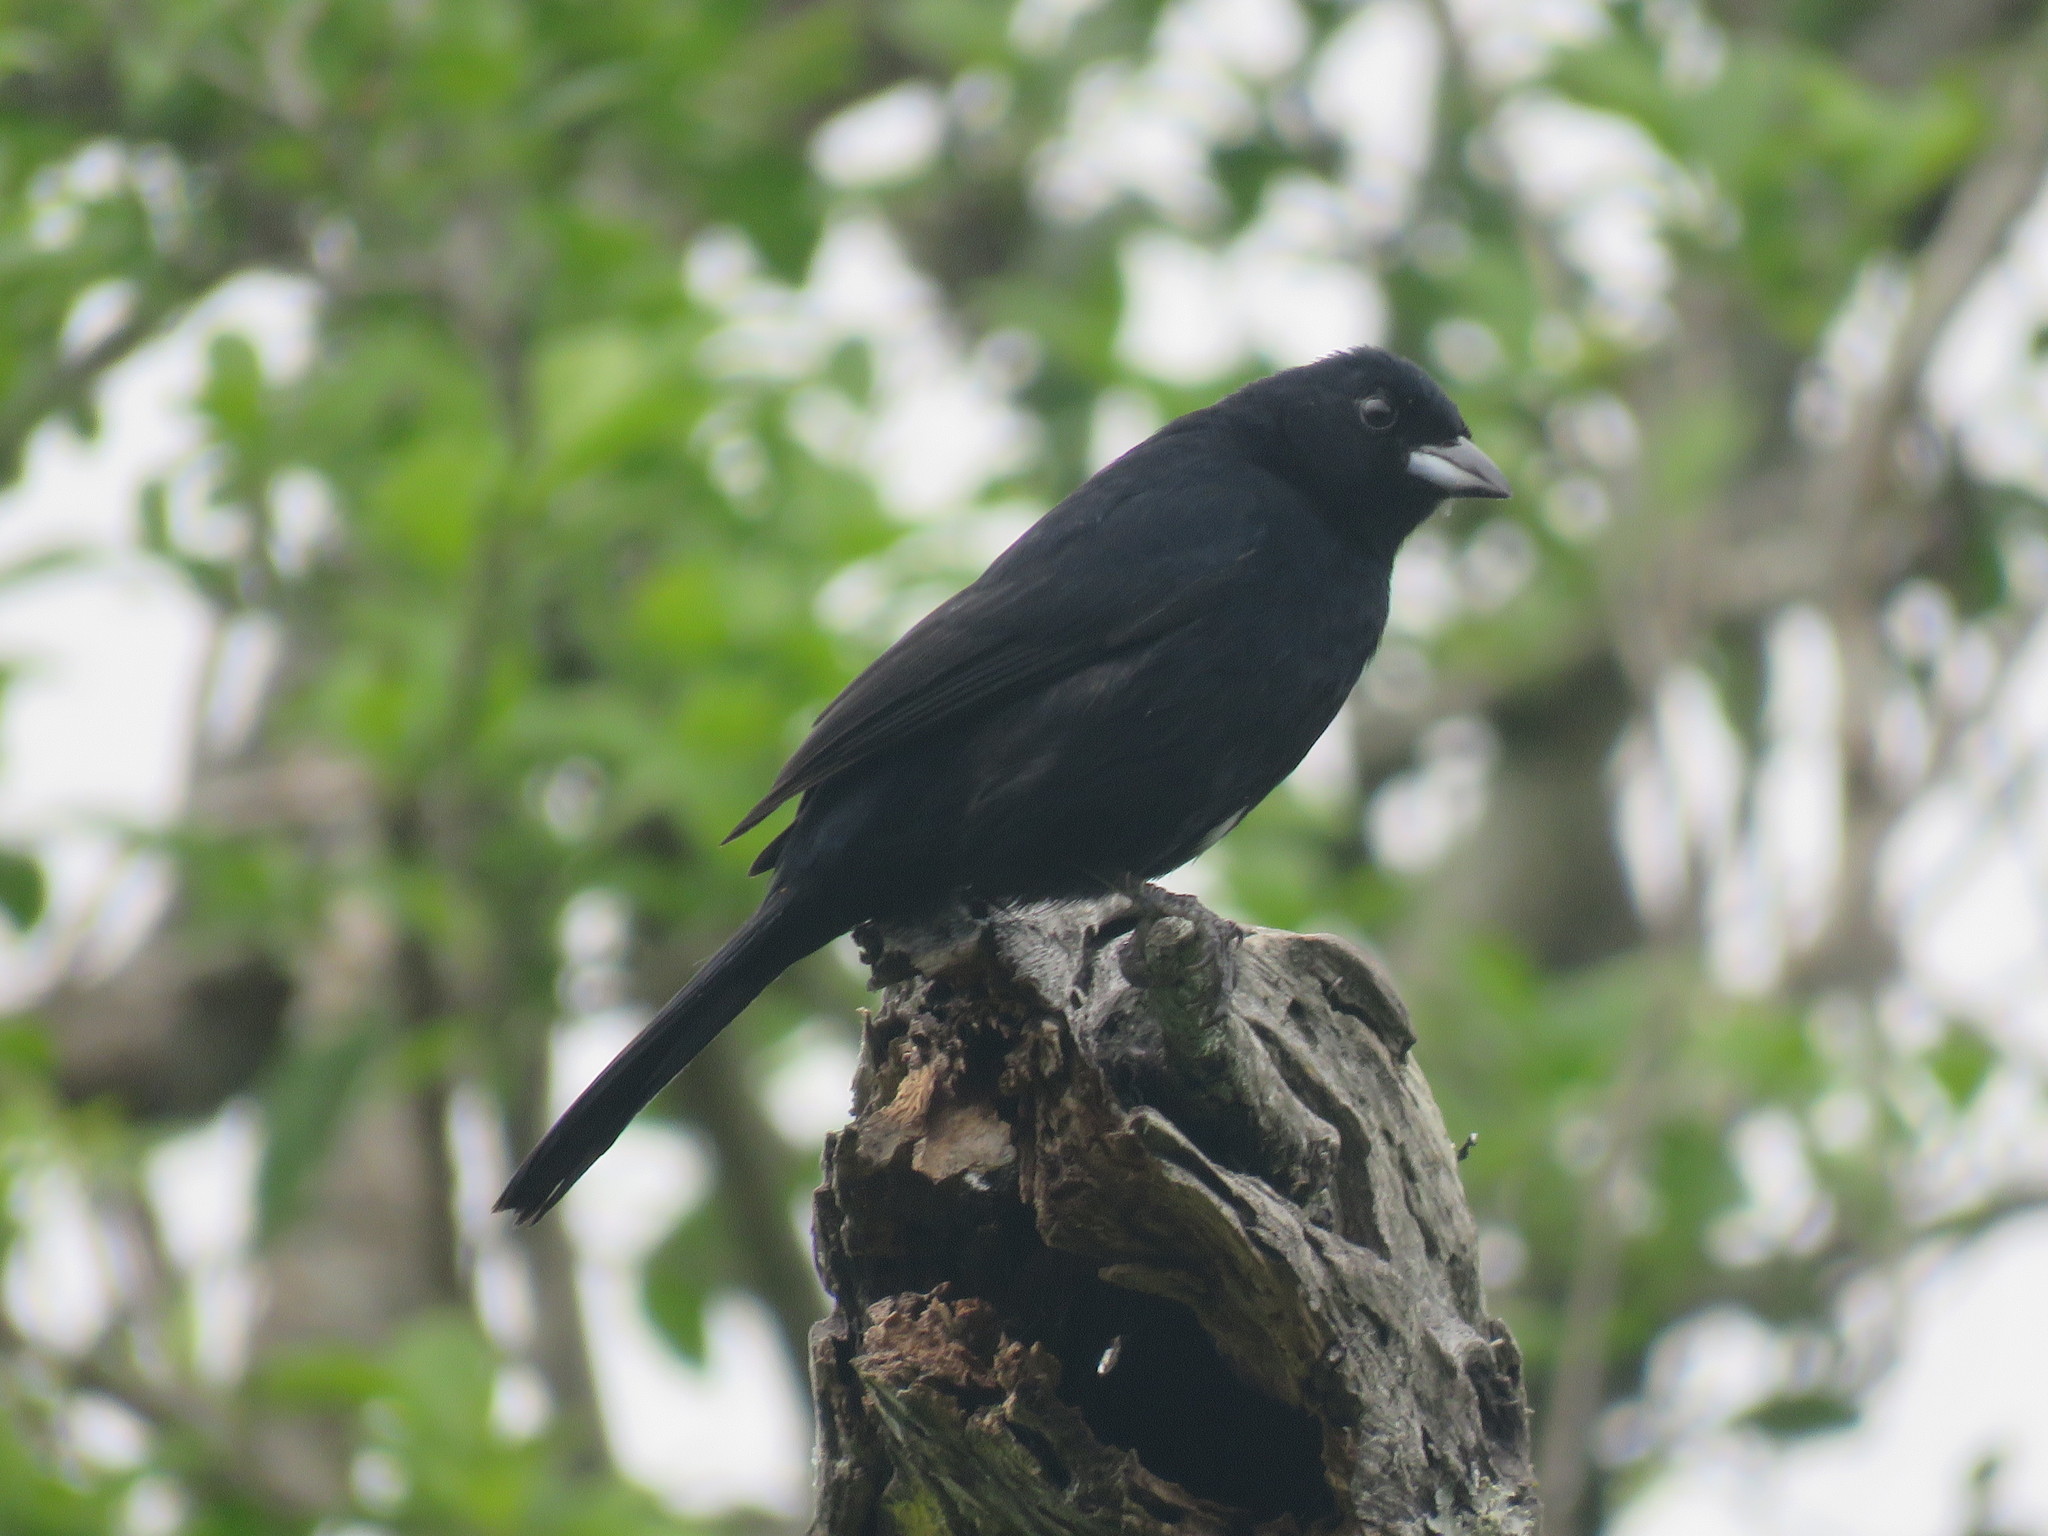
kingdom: Animalia
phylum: Chordata
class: Aves
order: Passeriformes
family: Thraupidae
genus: Tachyphonus
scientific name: Tachyphonus rufus
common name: White-lined tanager
